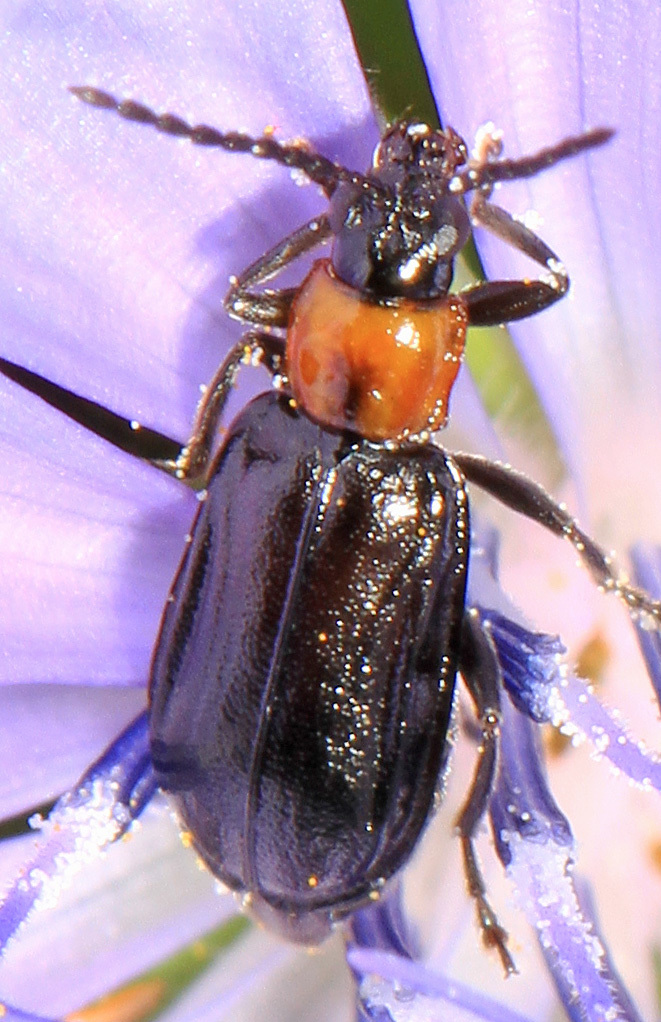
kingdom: Animalia
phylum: Arthropoda
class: Insecta
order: Coleoptera
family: Chrysomelidae
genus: Diabrotica
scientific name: Diabrotica cristata
